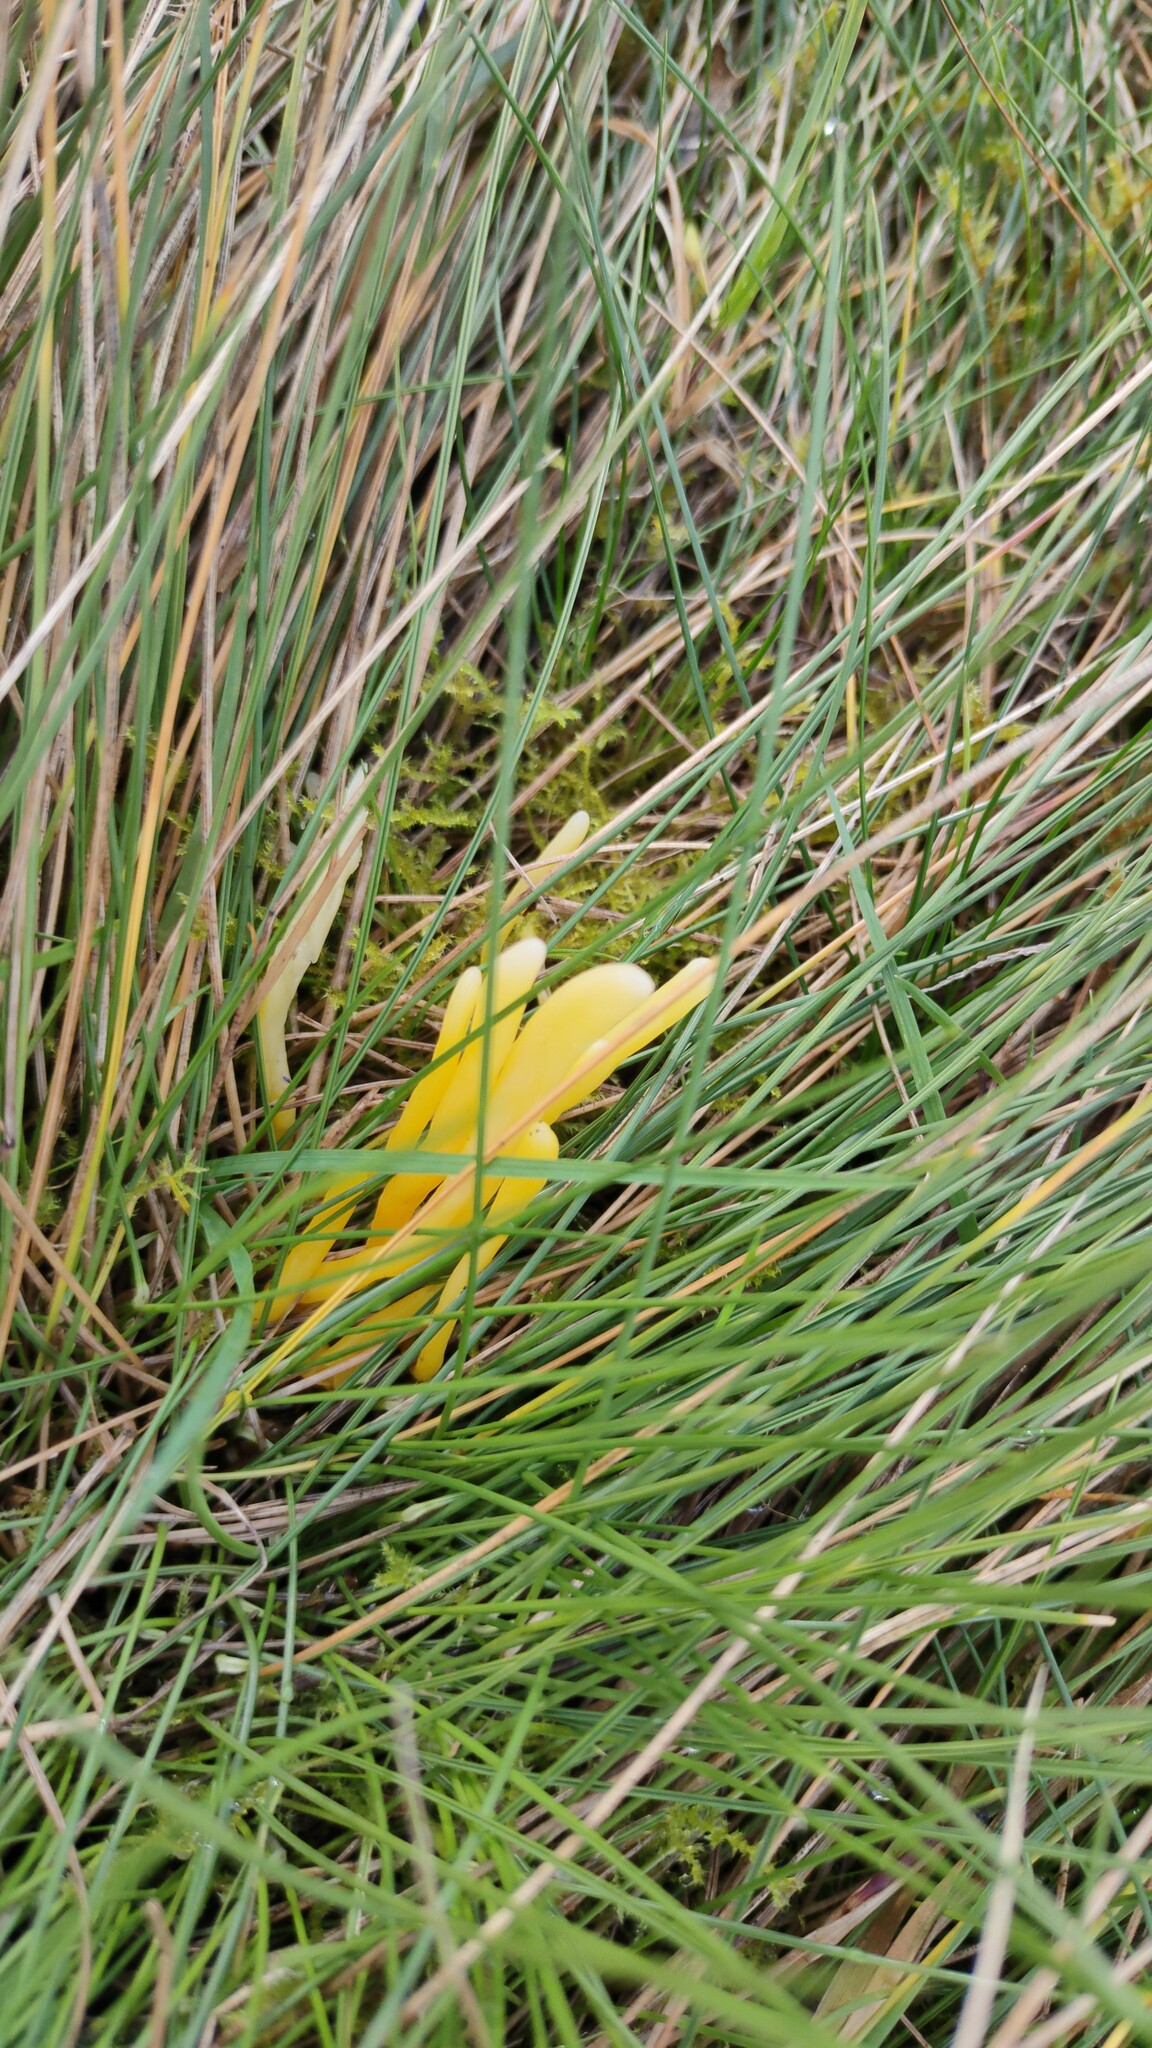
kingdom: Fungi
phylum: Basidiomycota
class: Agaricomycetes
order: Agaricales
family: Clavariaceae
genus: Clavulinopsis
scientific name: Clavulinopsis helvola
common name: Yellow club
